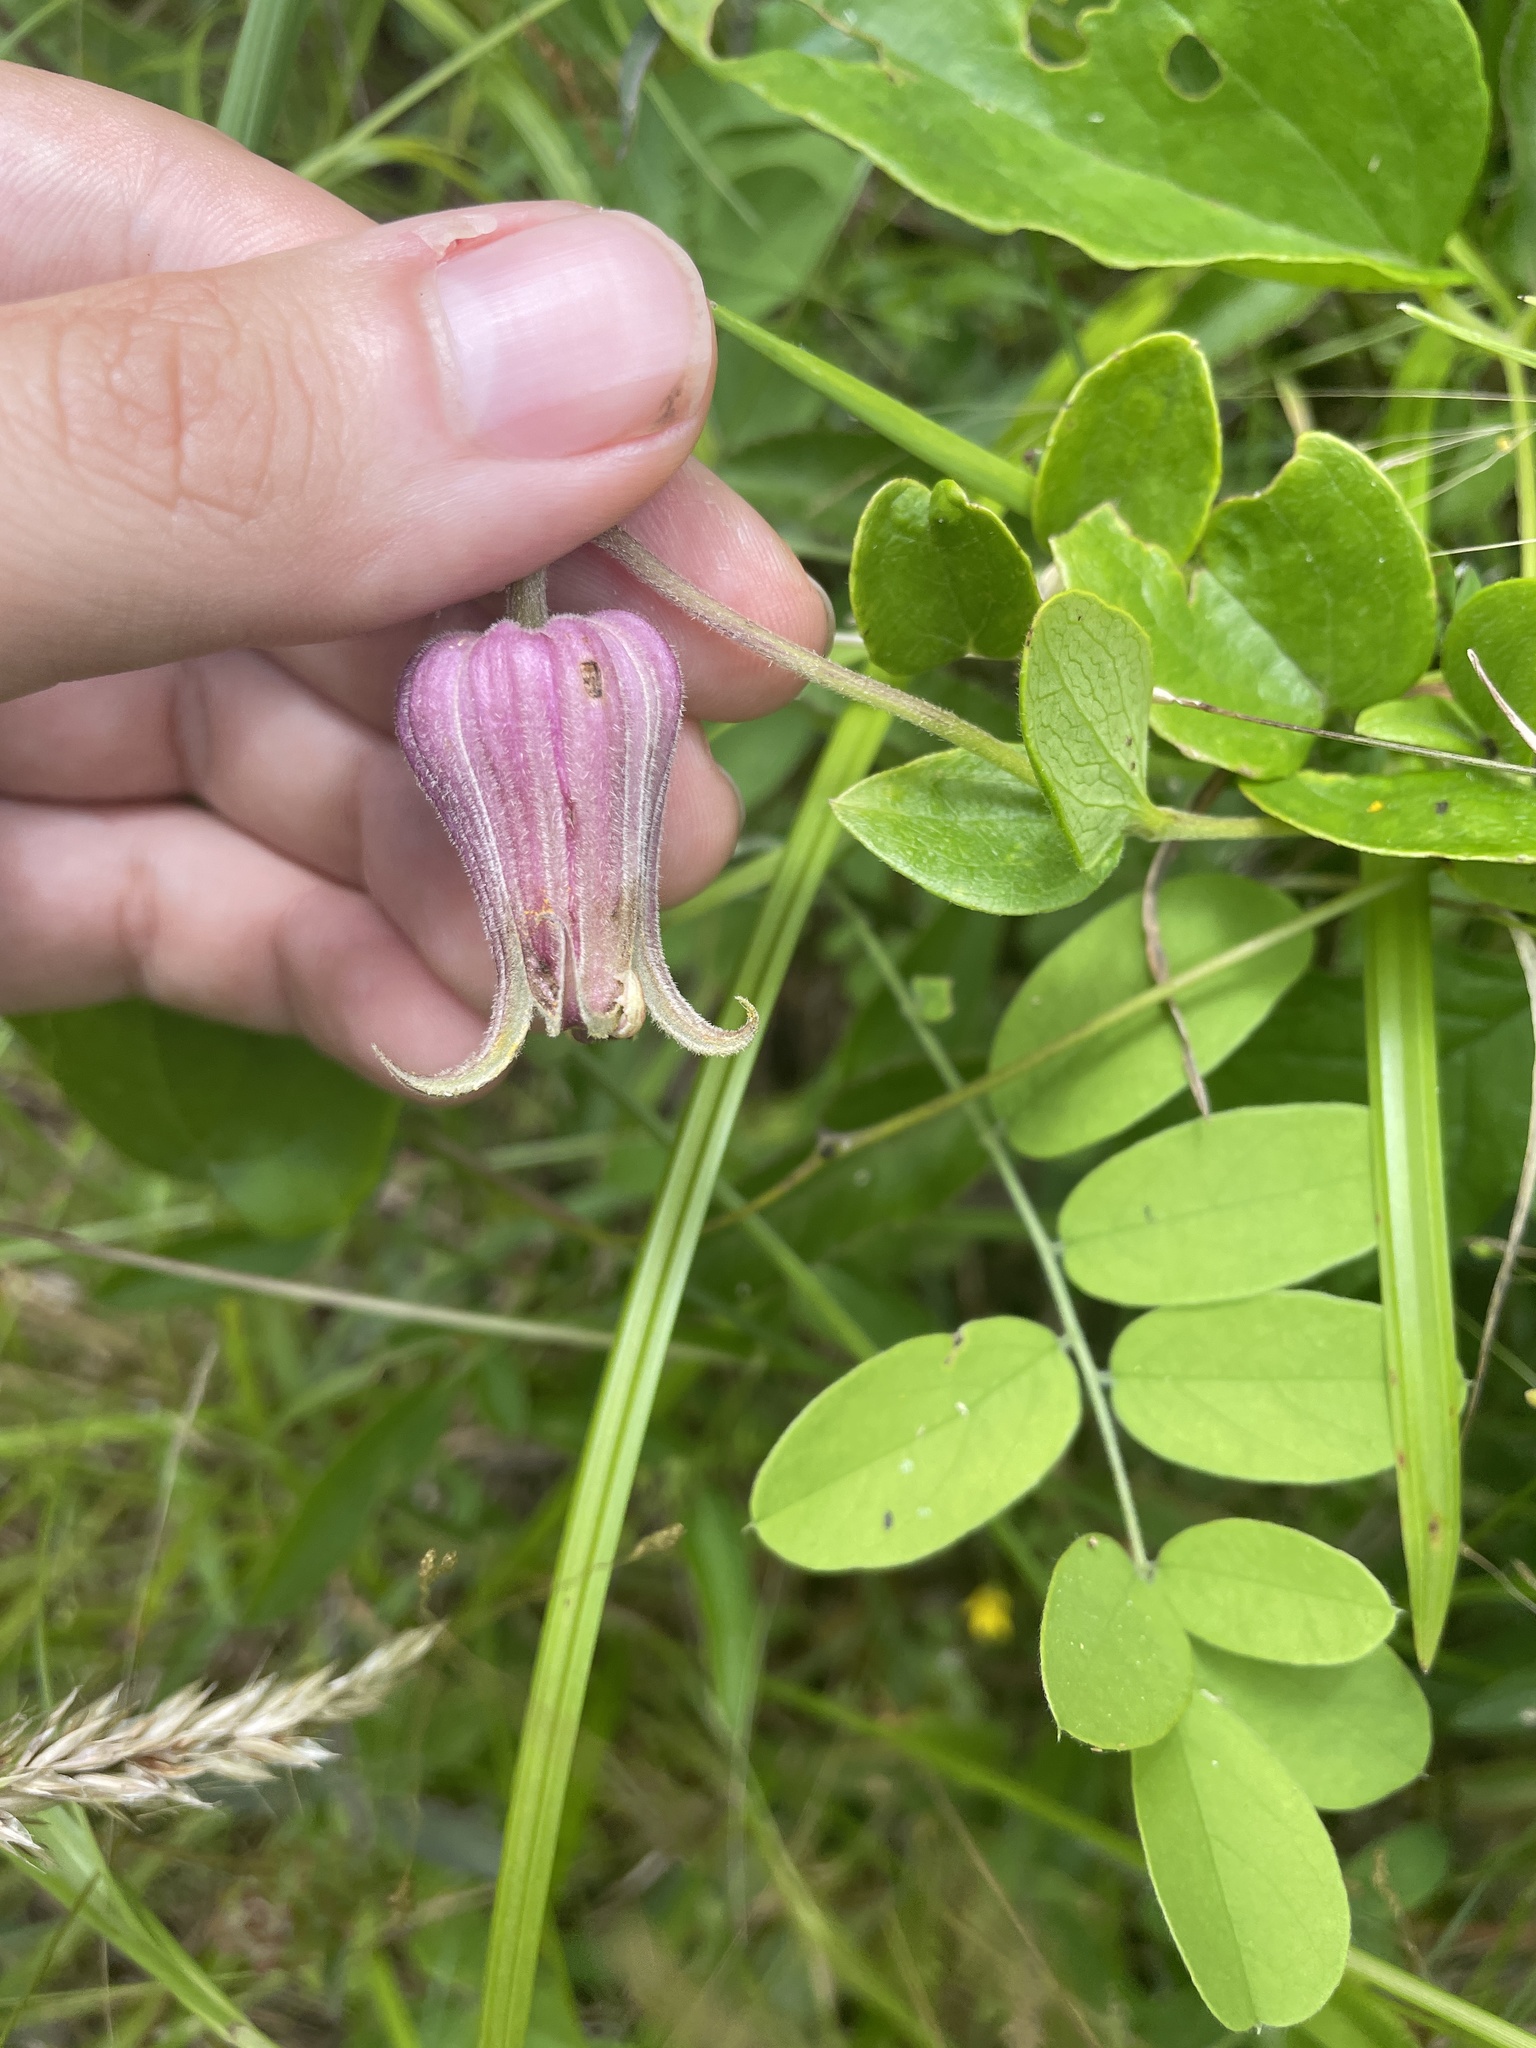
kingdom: Plantae
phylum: Tracheophyta
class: Magnoliopsida
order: Ranunculales
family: Ranunculaceae
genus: Clematis
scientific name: Clematis reticulata
